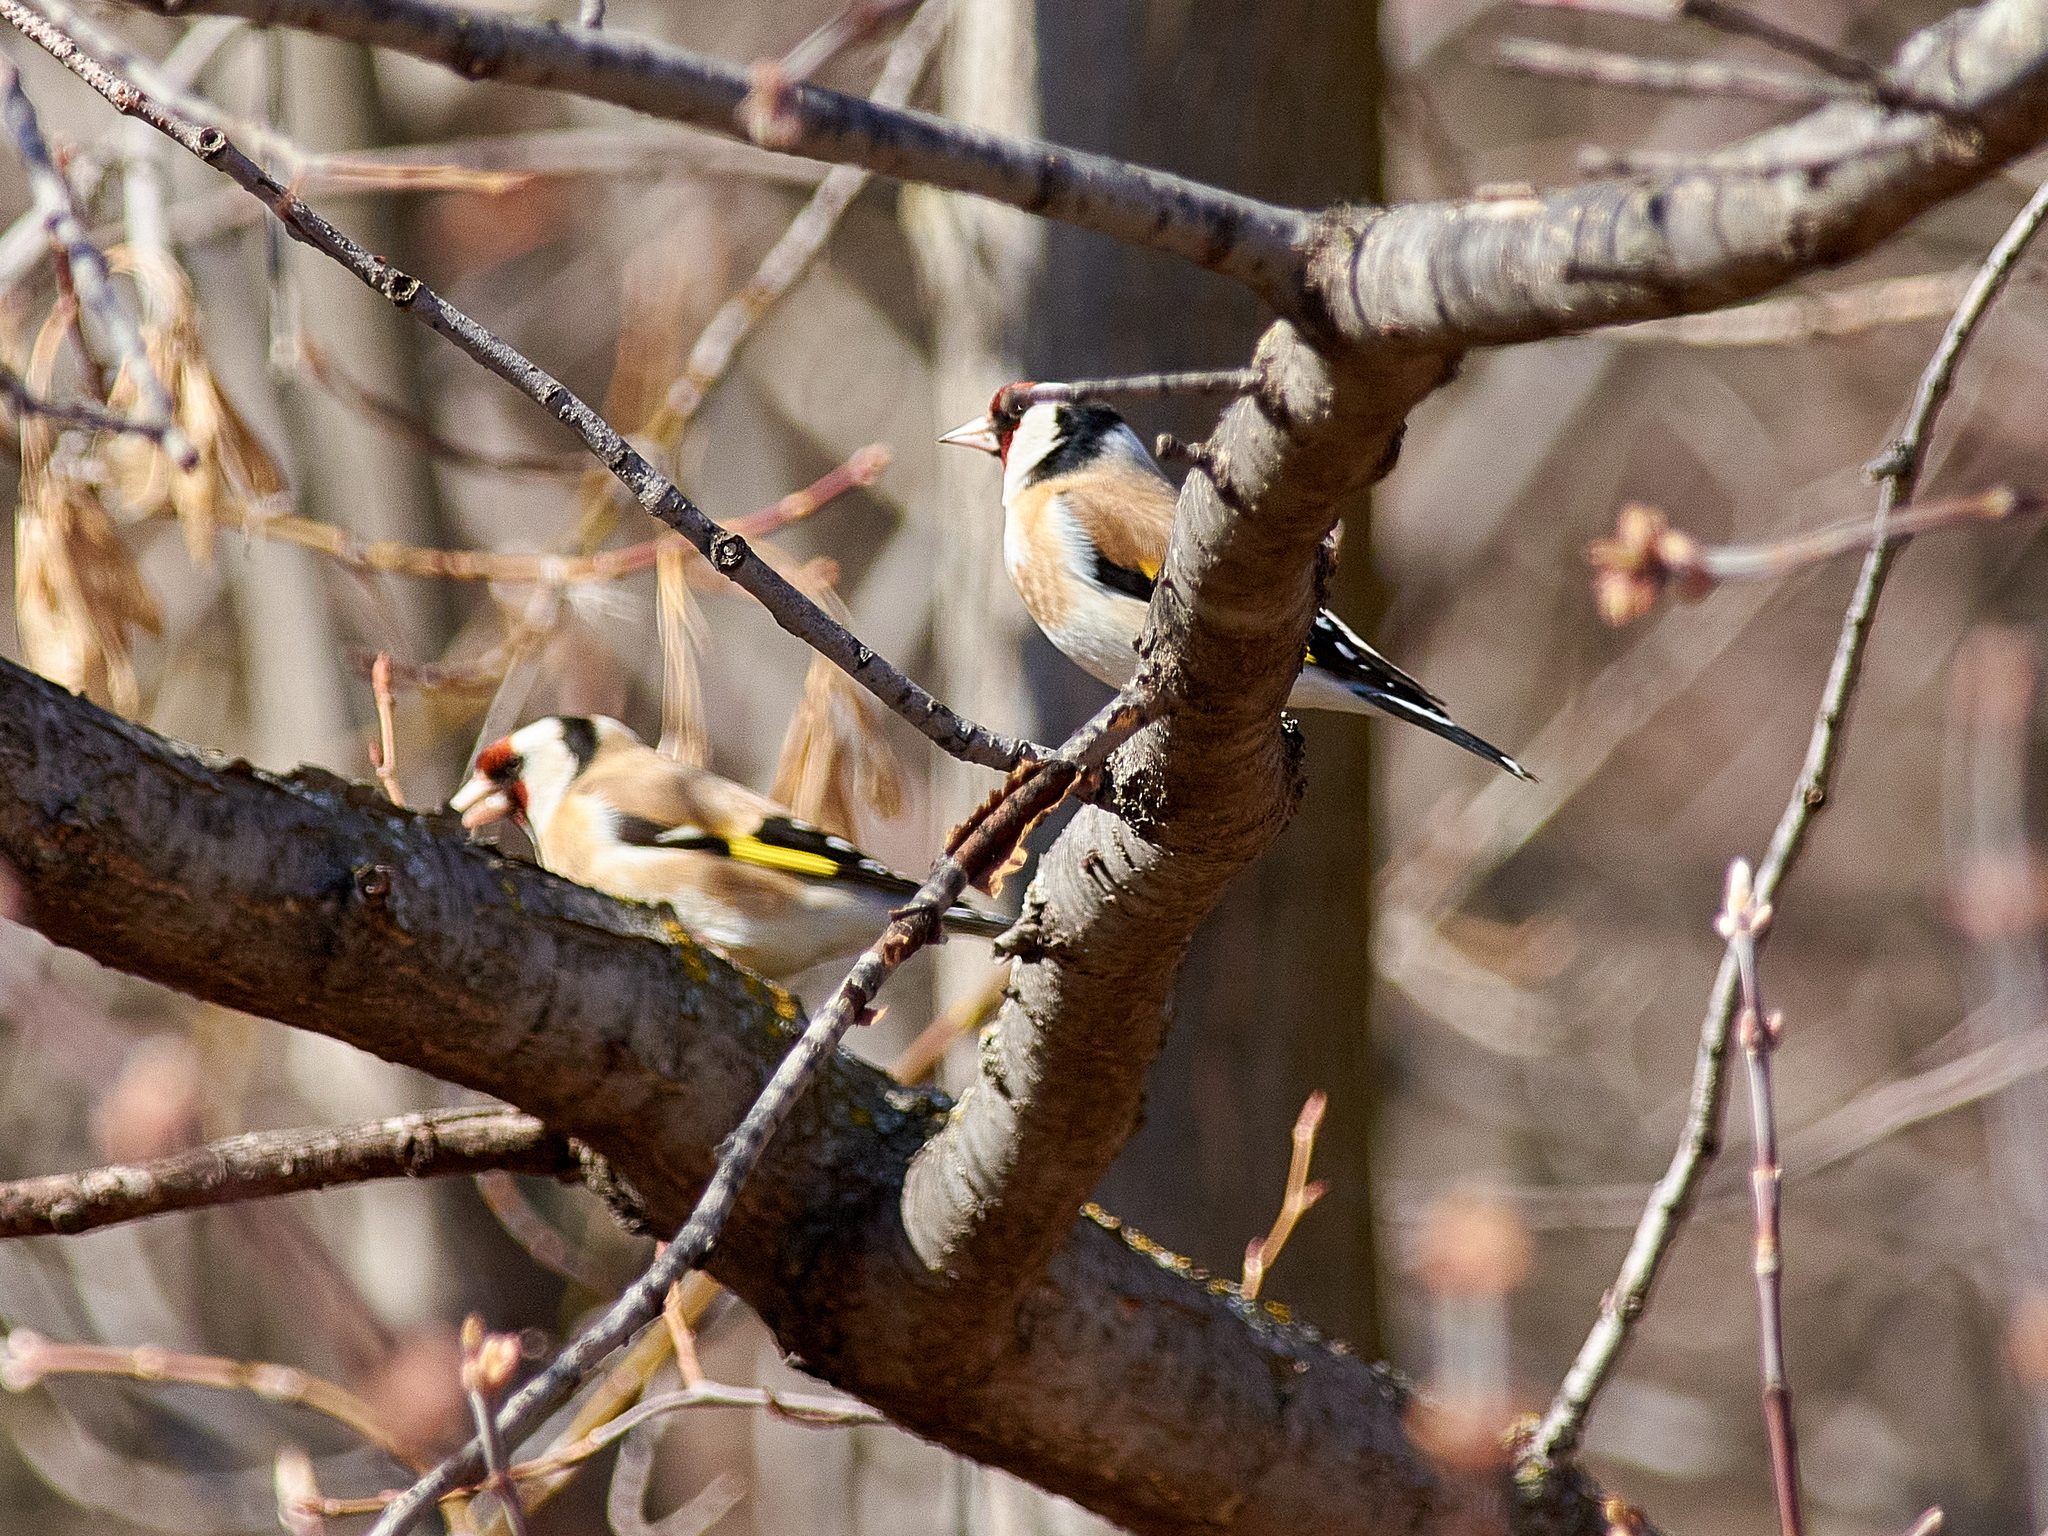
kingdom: Animalia
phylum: Chordata
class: Aves
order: Passeriformes
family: Fringillidae
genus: Carduelis
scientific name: Carduelis carduelis
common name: European goldfinch
